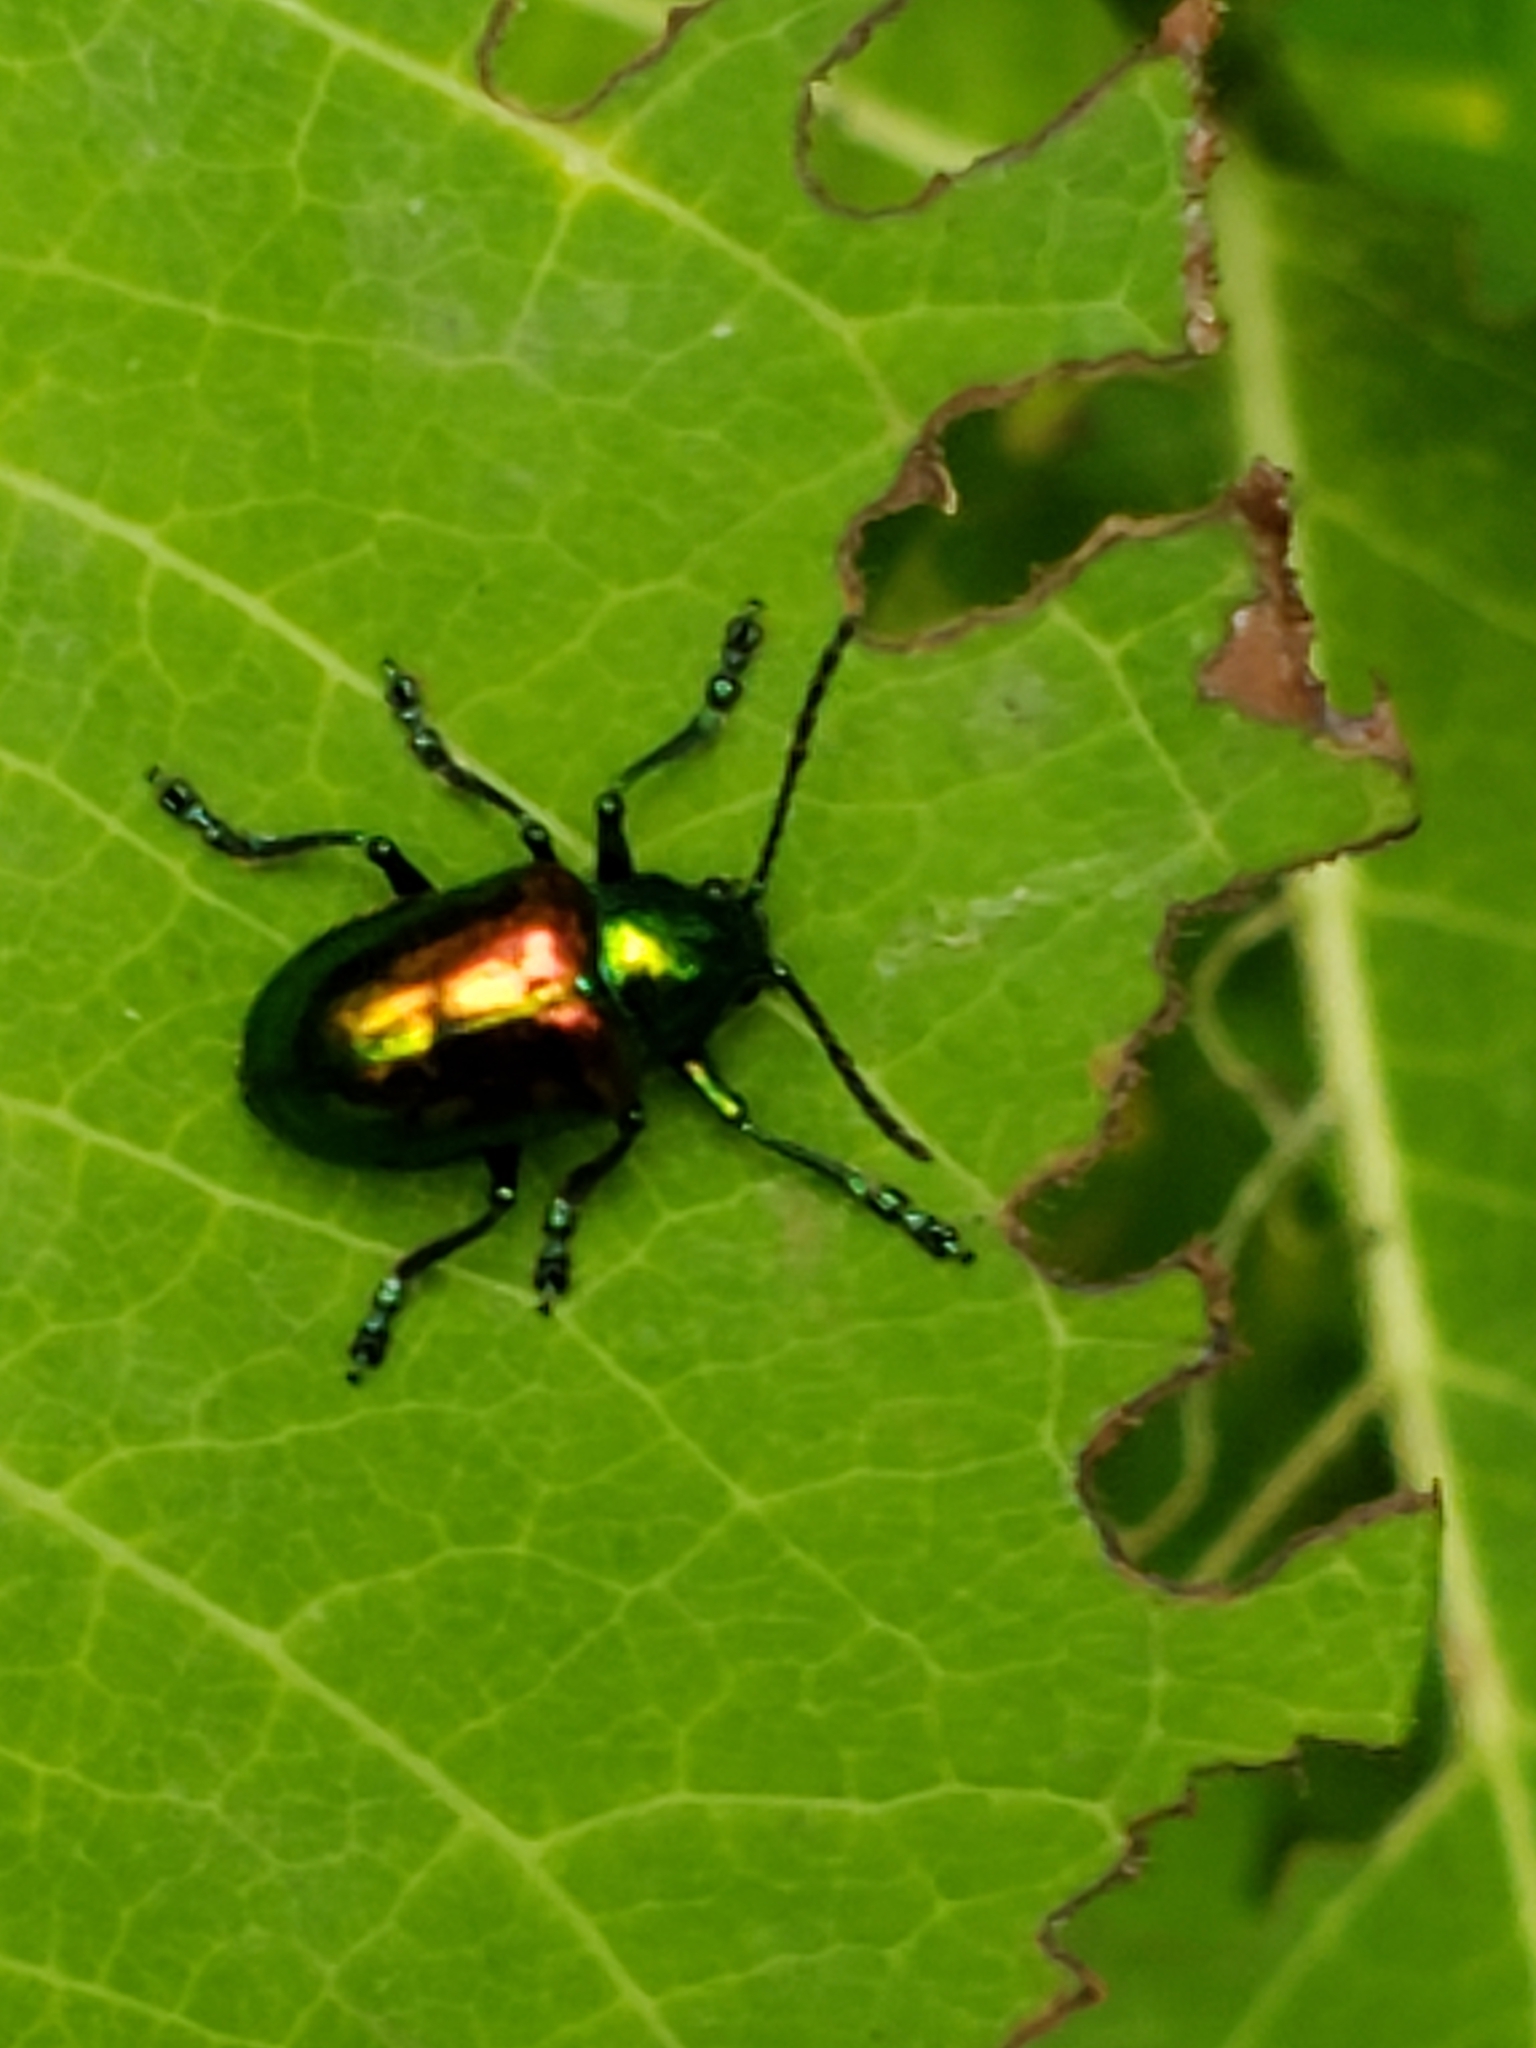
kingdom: Animalia
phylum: Arthropoda
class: Insecta
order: Coleoptera
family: Chrysomelidae
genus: Chrysochus
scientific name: Chrysochus auratus
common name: Dogbane leaf beetle
